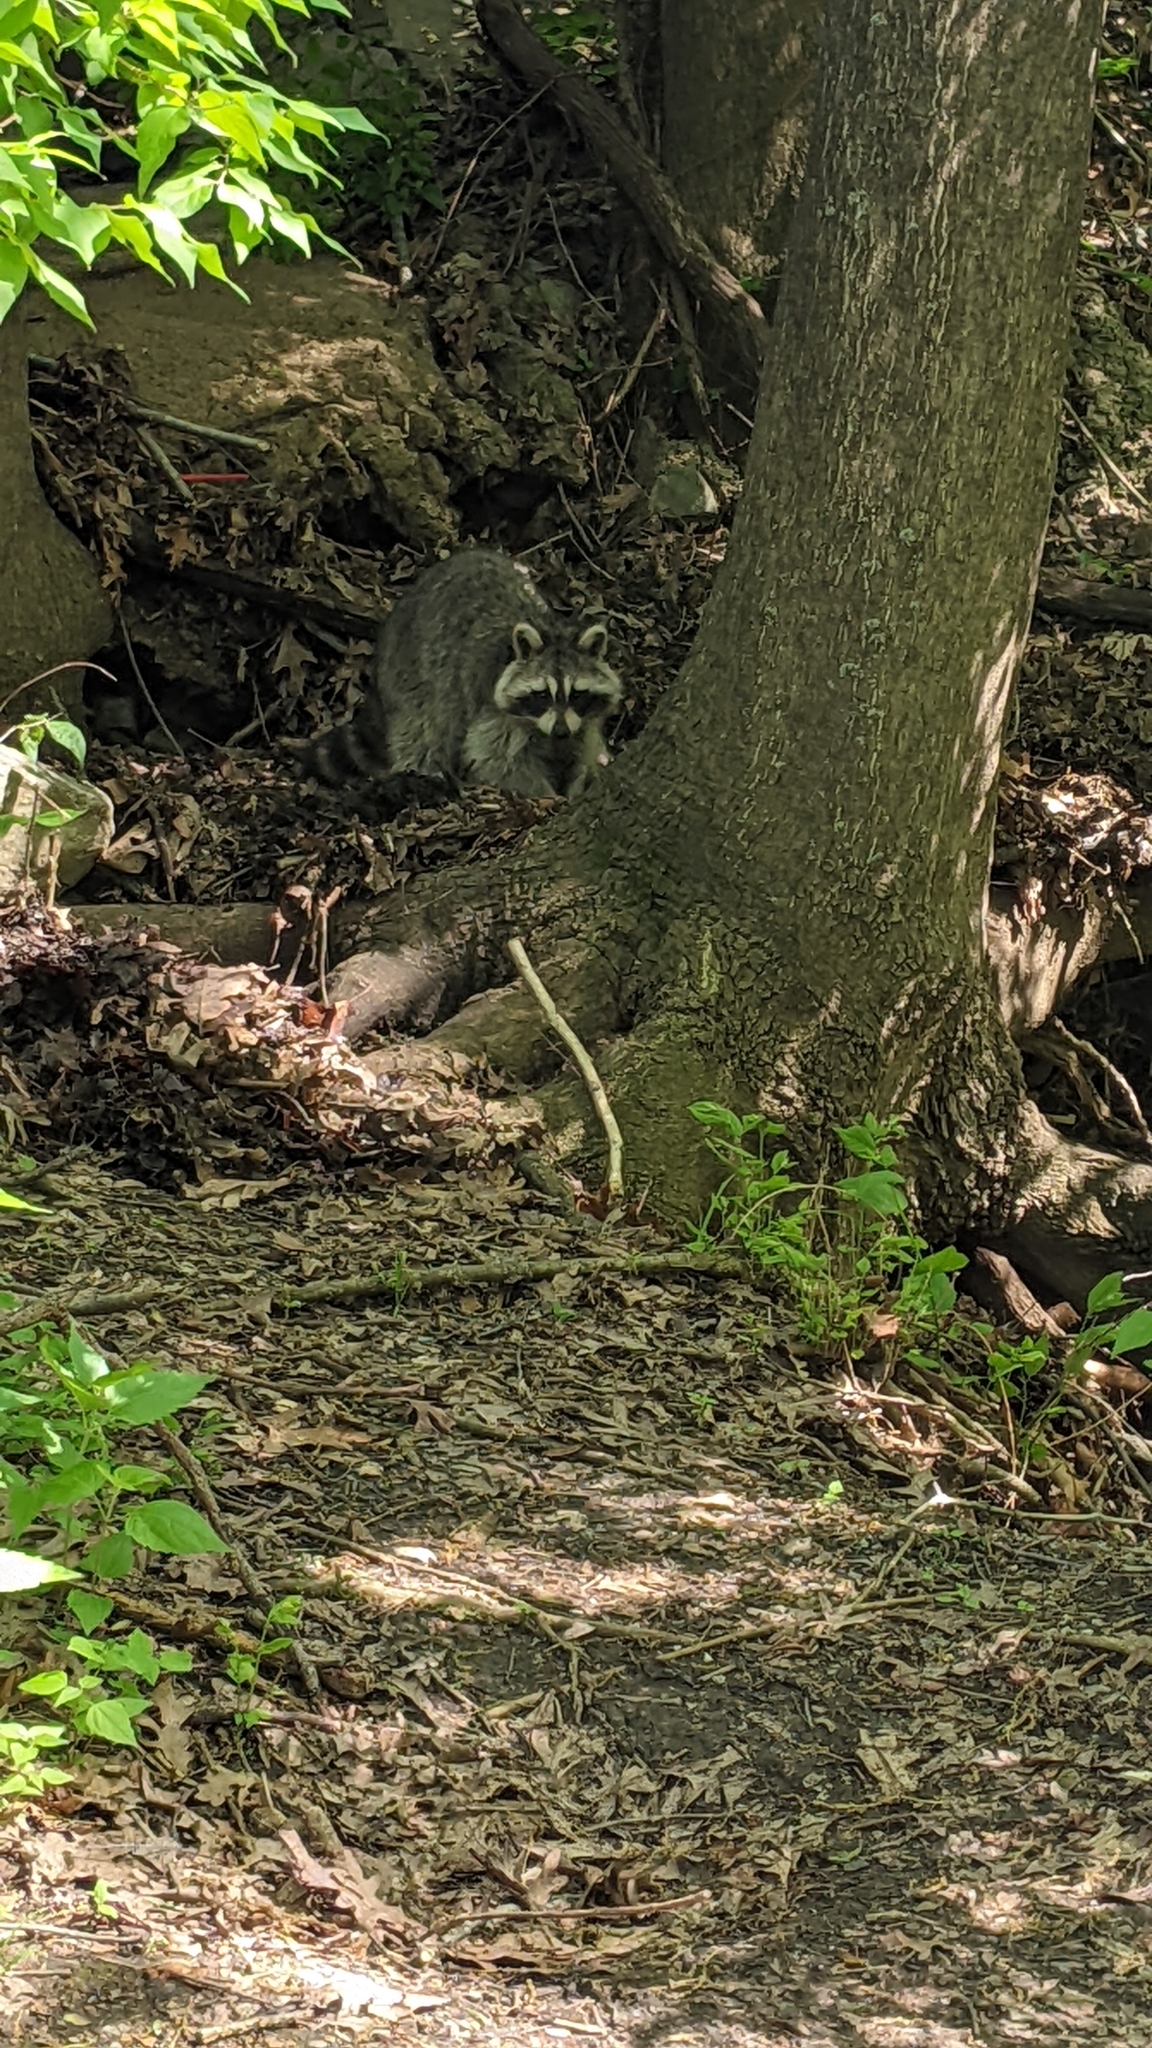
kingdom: Animalia
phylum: Chordata
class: Mammalia
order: Carnivora
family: Procyonidae
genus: Procyon
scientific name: Procyon lotor
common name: Raccoon
